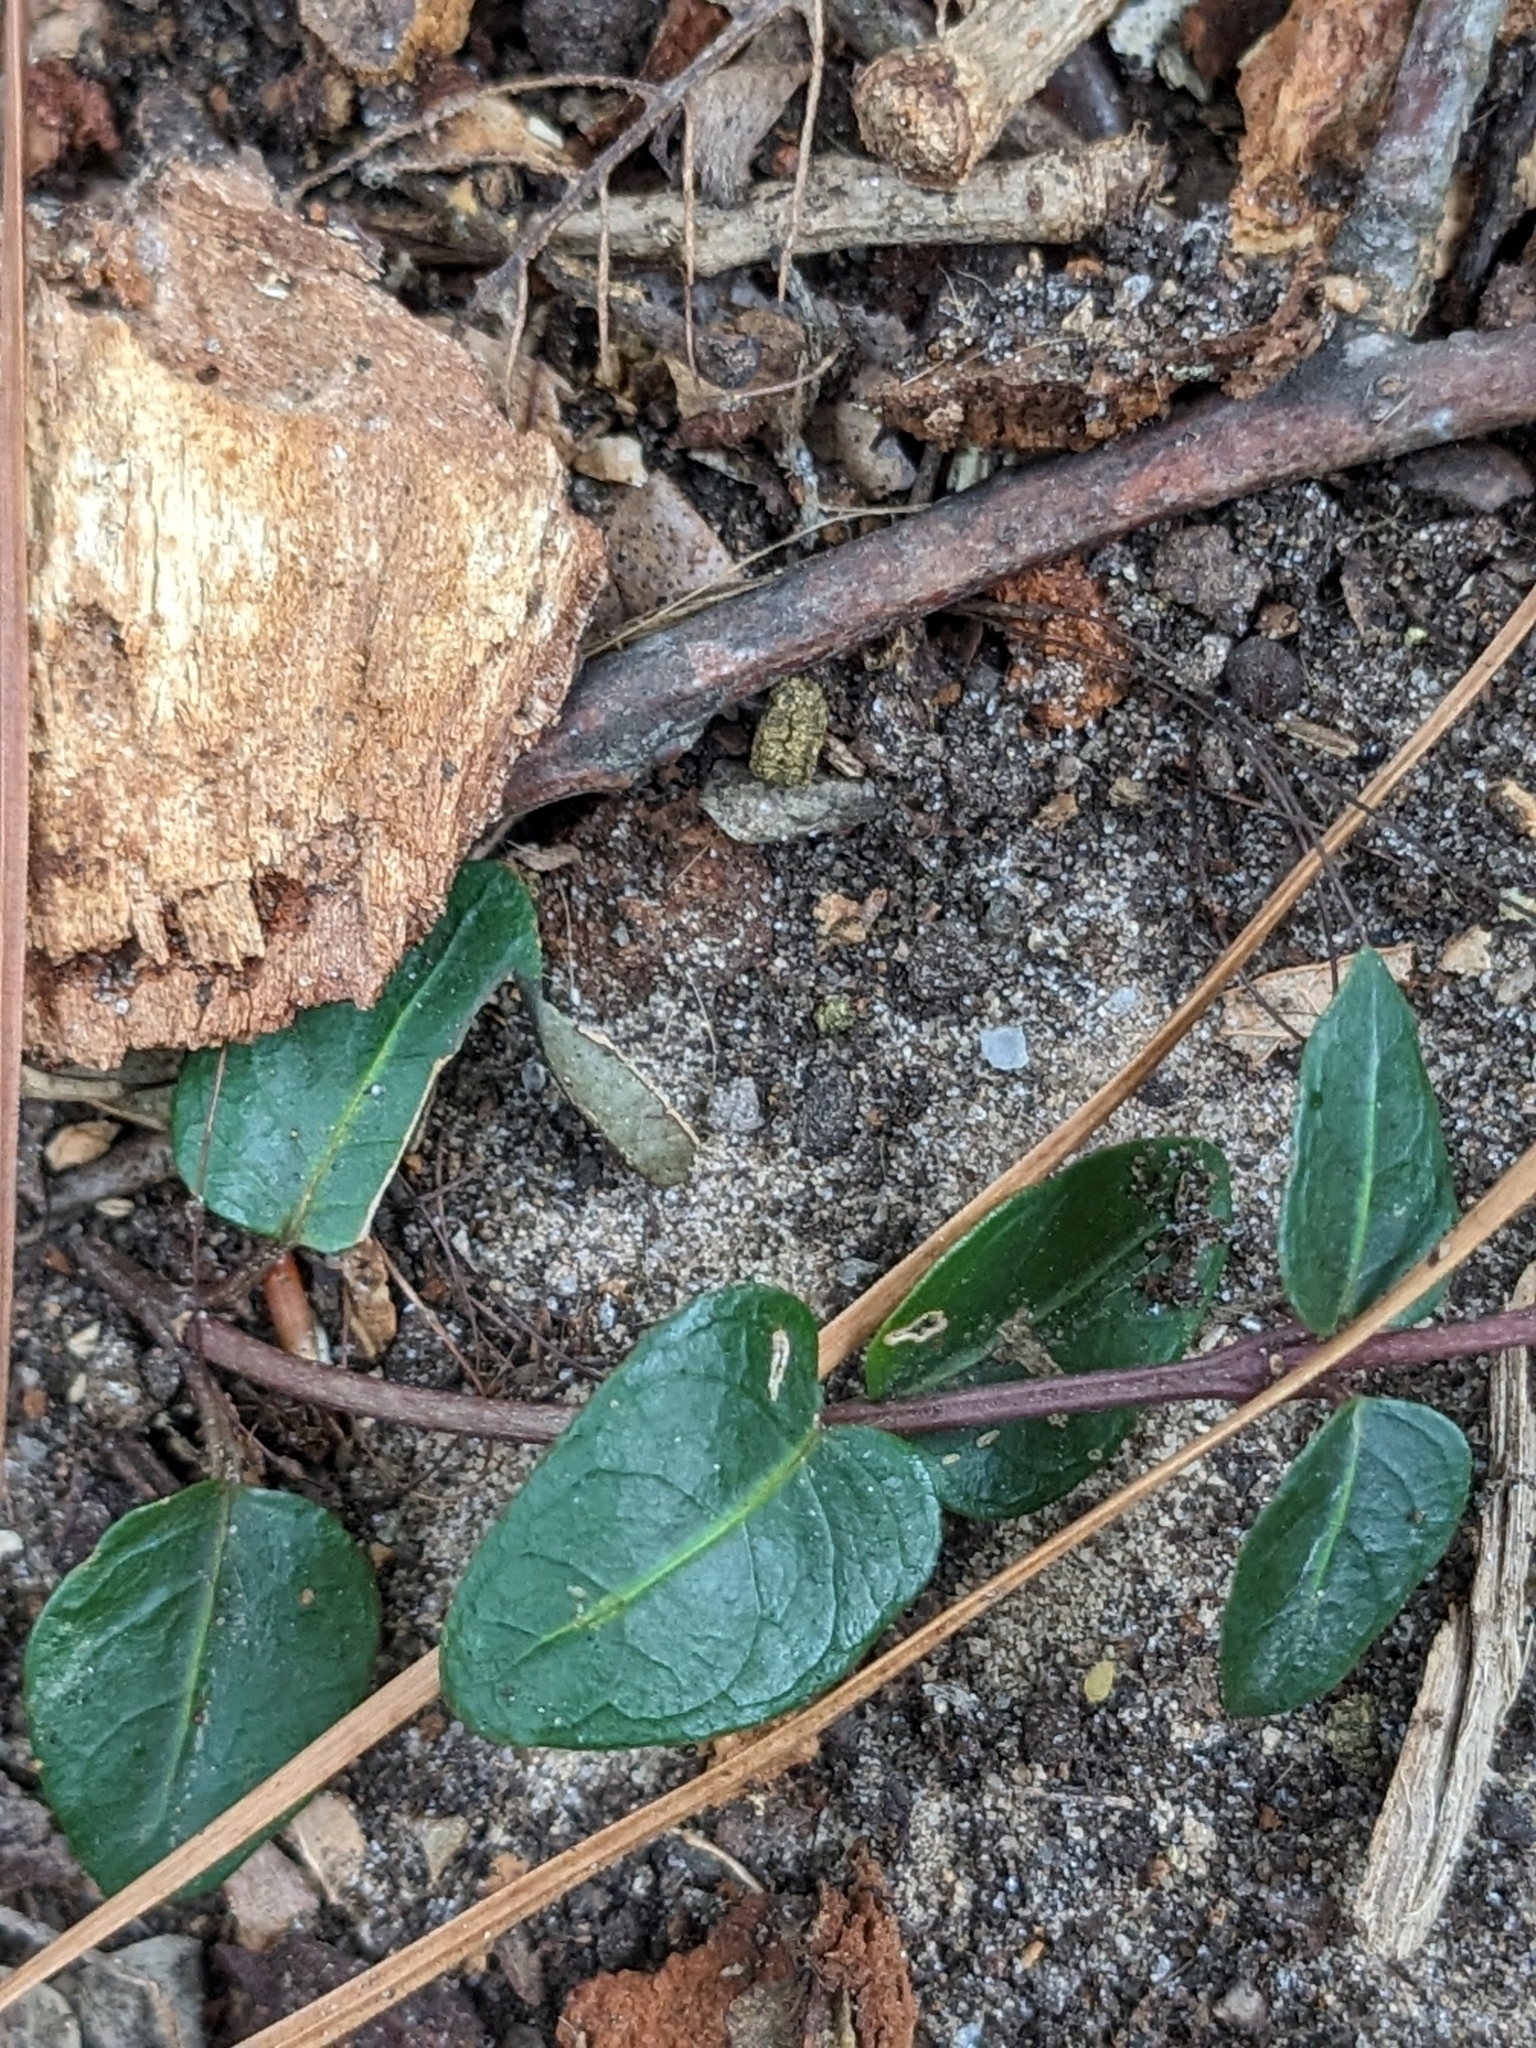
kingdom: Plantae
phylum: Tracheophyta
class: Magnoliopsida
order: Gentianales
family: Rubiaceae
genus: Mitchella
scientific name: Mitchella repens
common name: Partridge-berry
